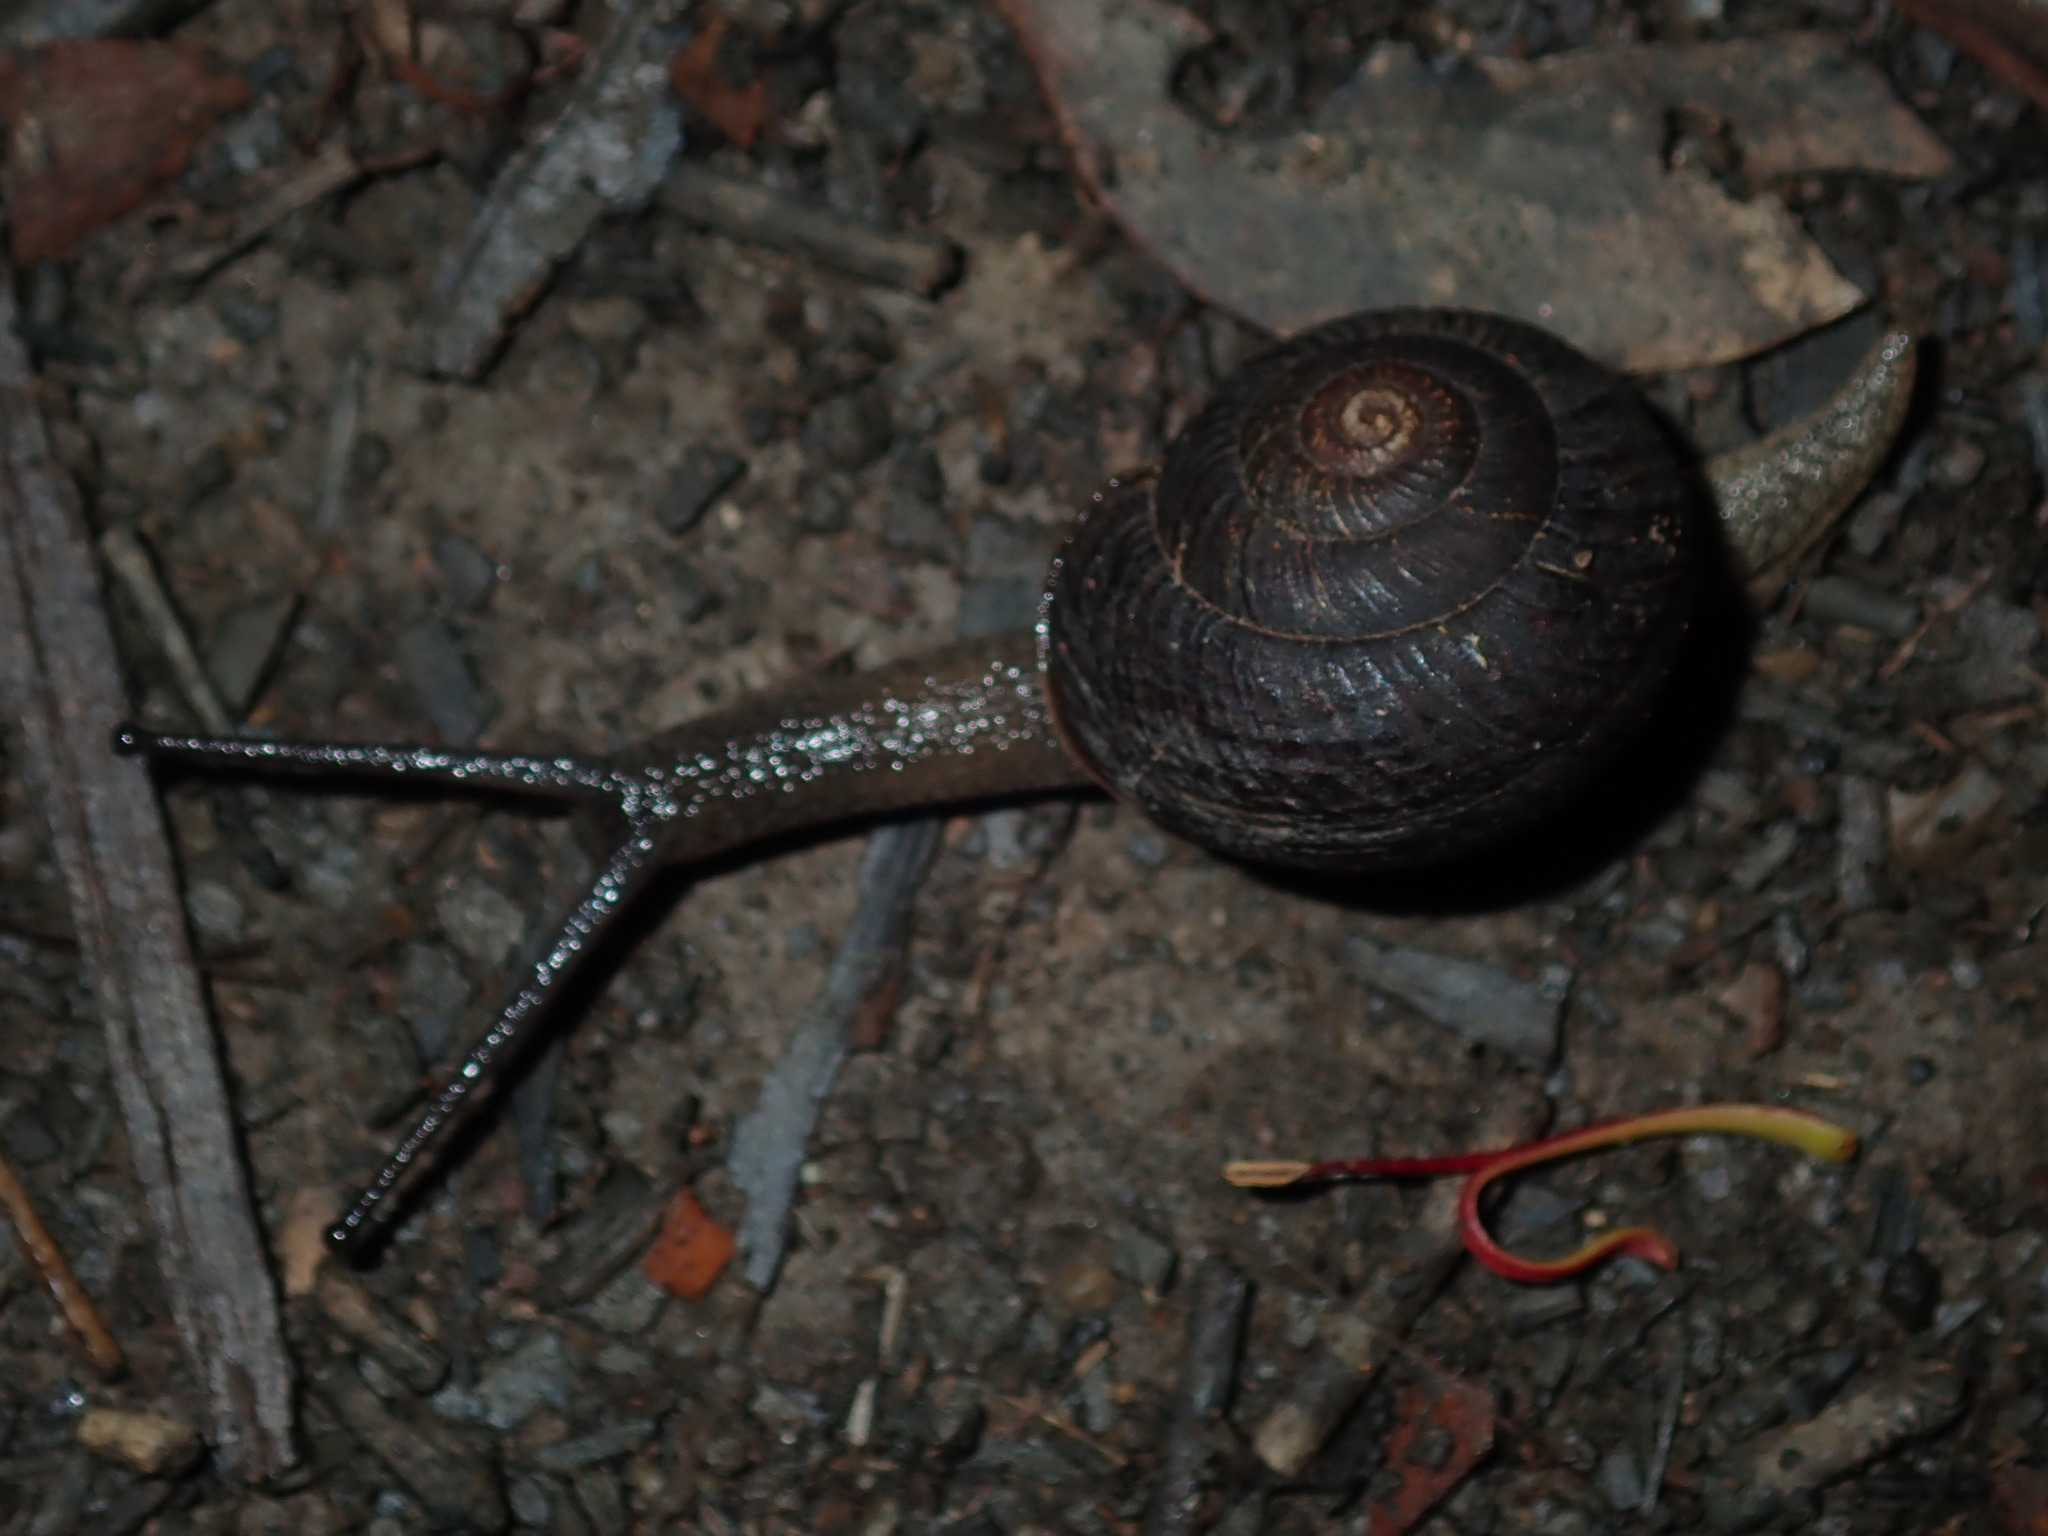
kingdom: Animalia
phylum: Mollusca
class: Gastropoda
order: Stylommatophora
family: Camaenidae
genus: Sauroconcha
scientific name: Sauroconcha sheai
